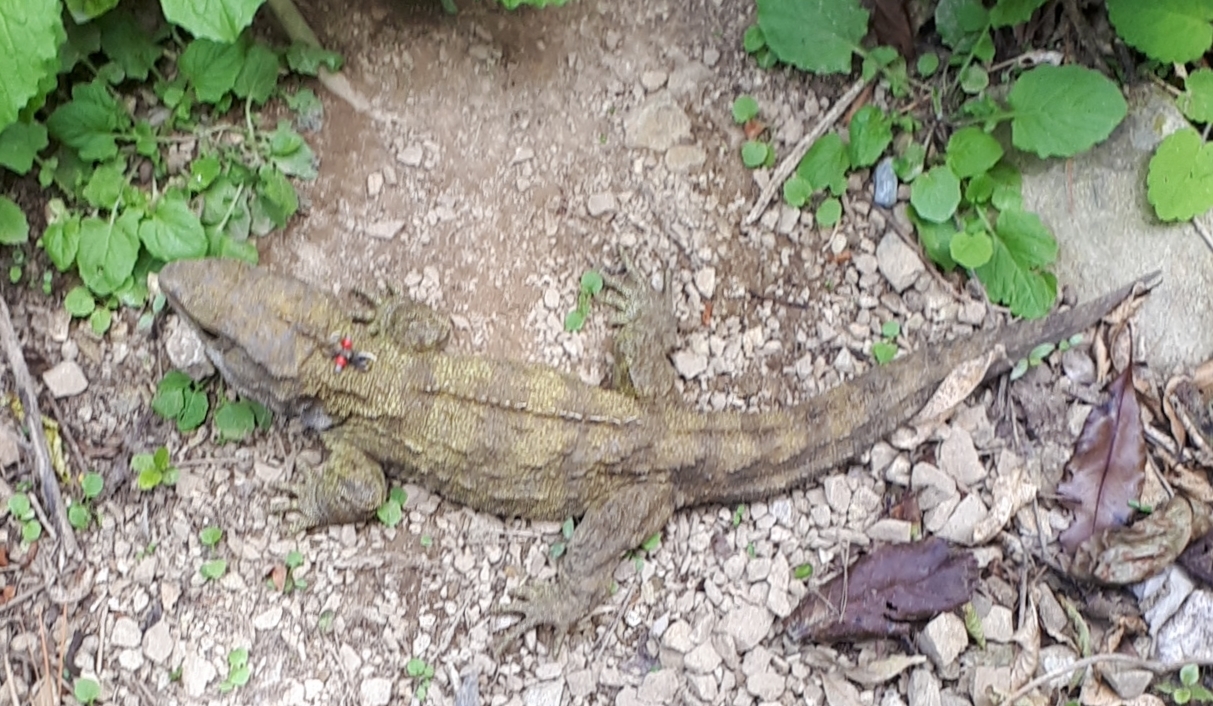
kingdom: Animalia
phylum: Chordata
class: Sphenodontia
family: Sphenodontidae
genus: Sphenodon
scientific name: Sphenodon punctatus
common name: Tuatara
